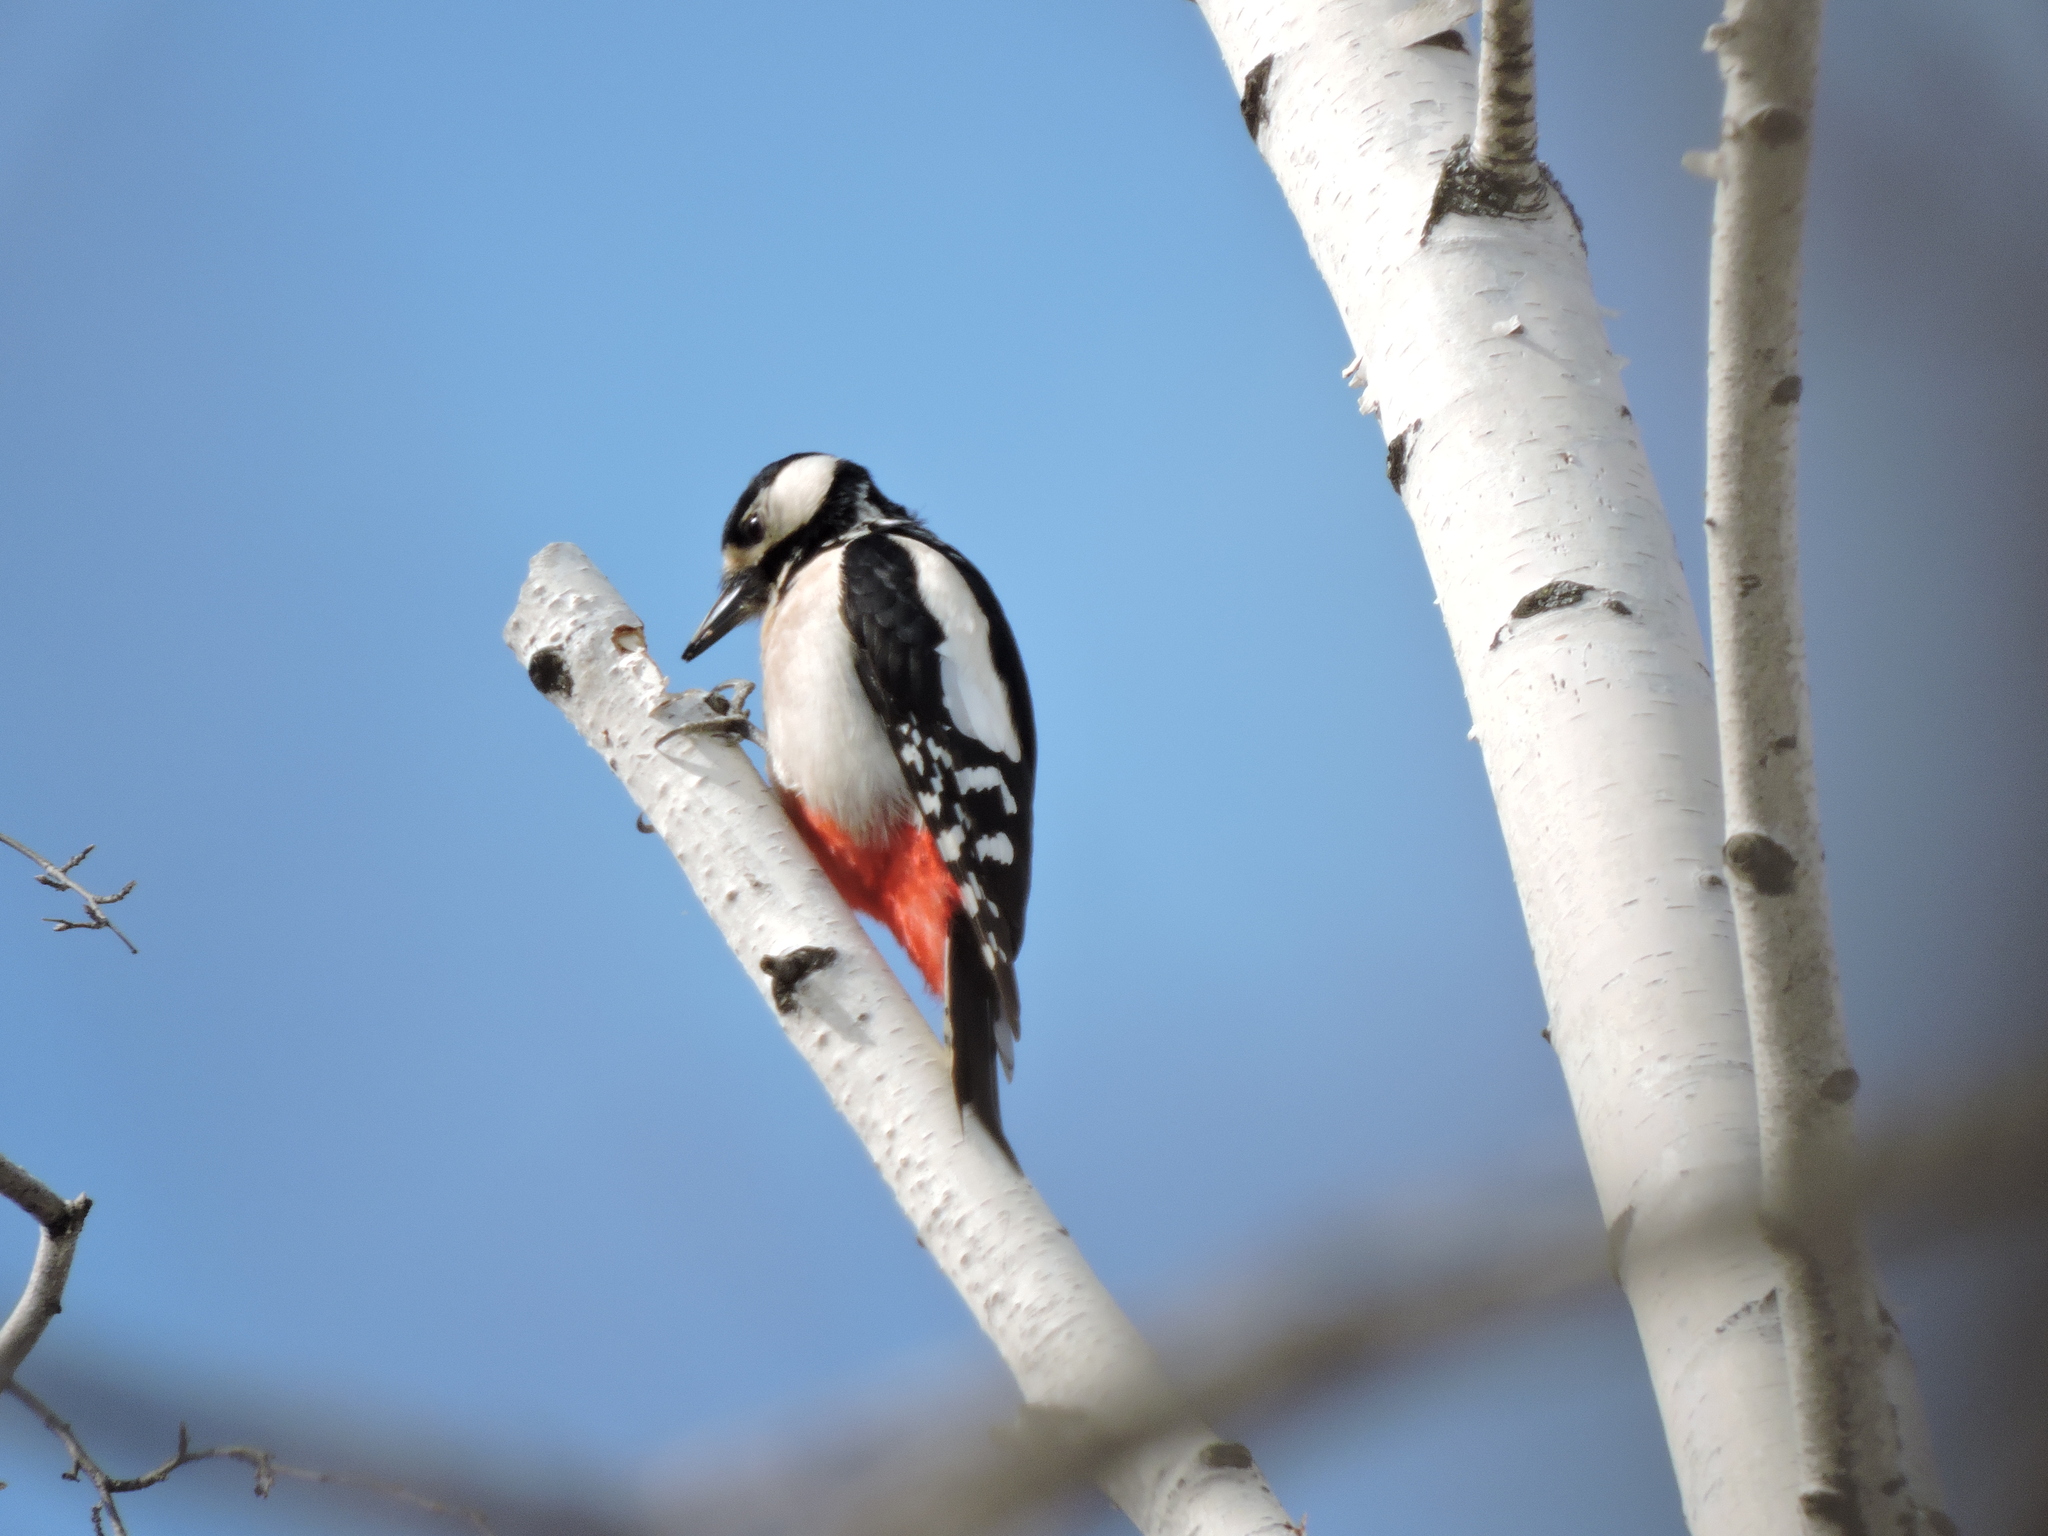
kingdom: Animalia
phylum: Chordata
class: Aves
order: Piciformes
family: Picidae
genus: Dendrocopos
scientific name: Dendrocopos major
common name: Great spotted woodpecker
